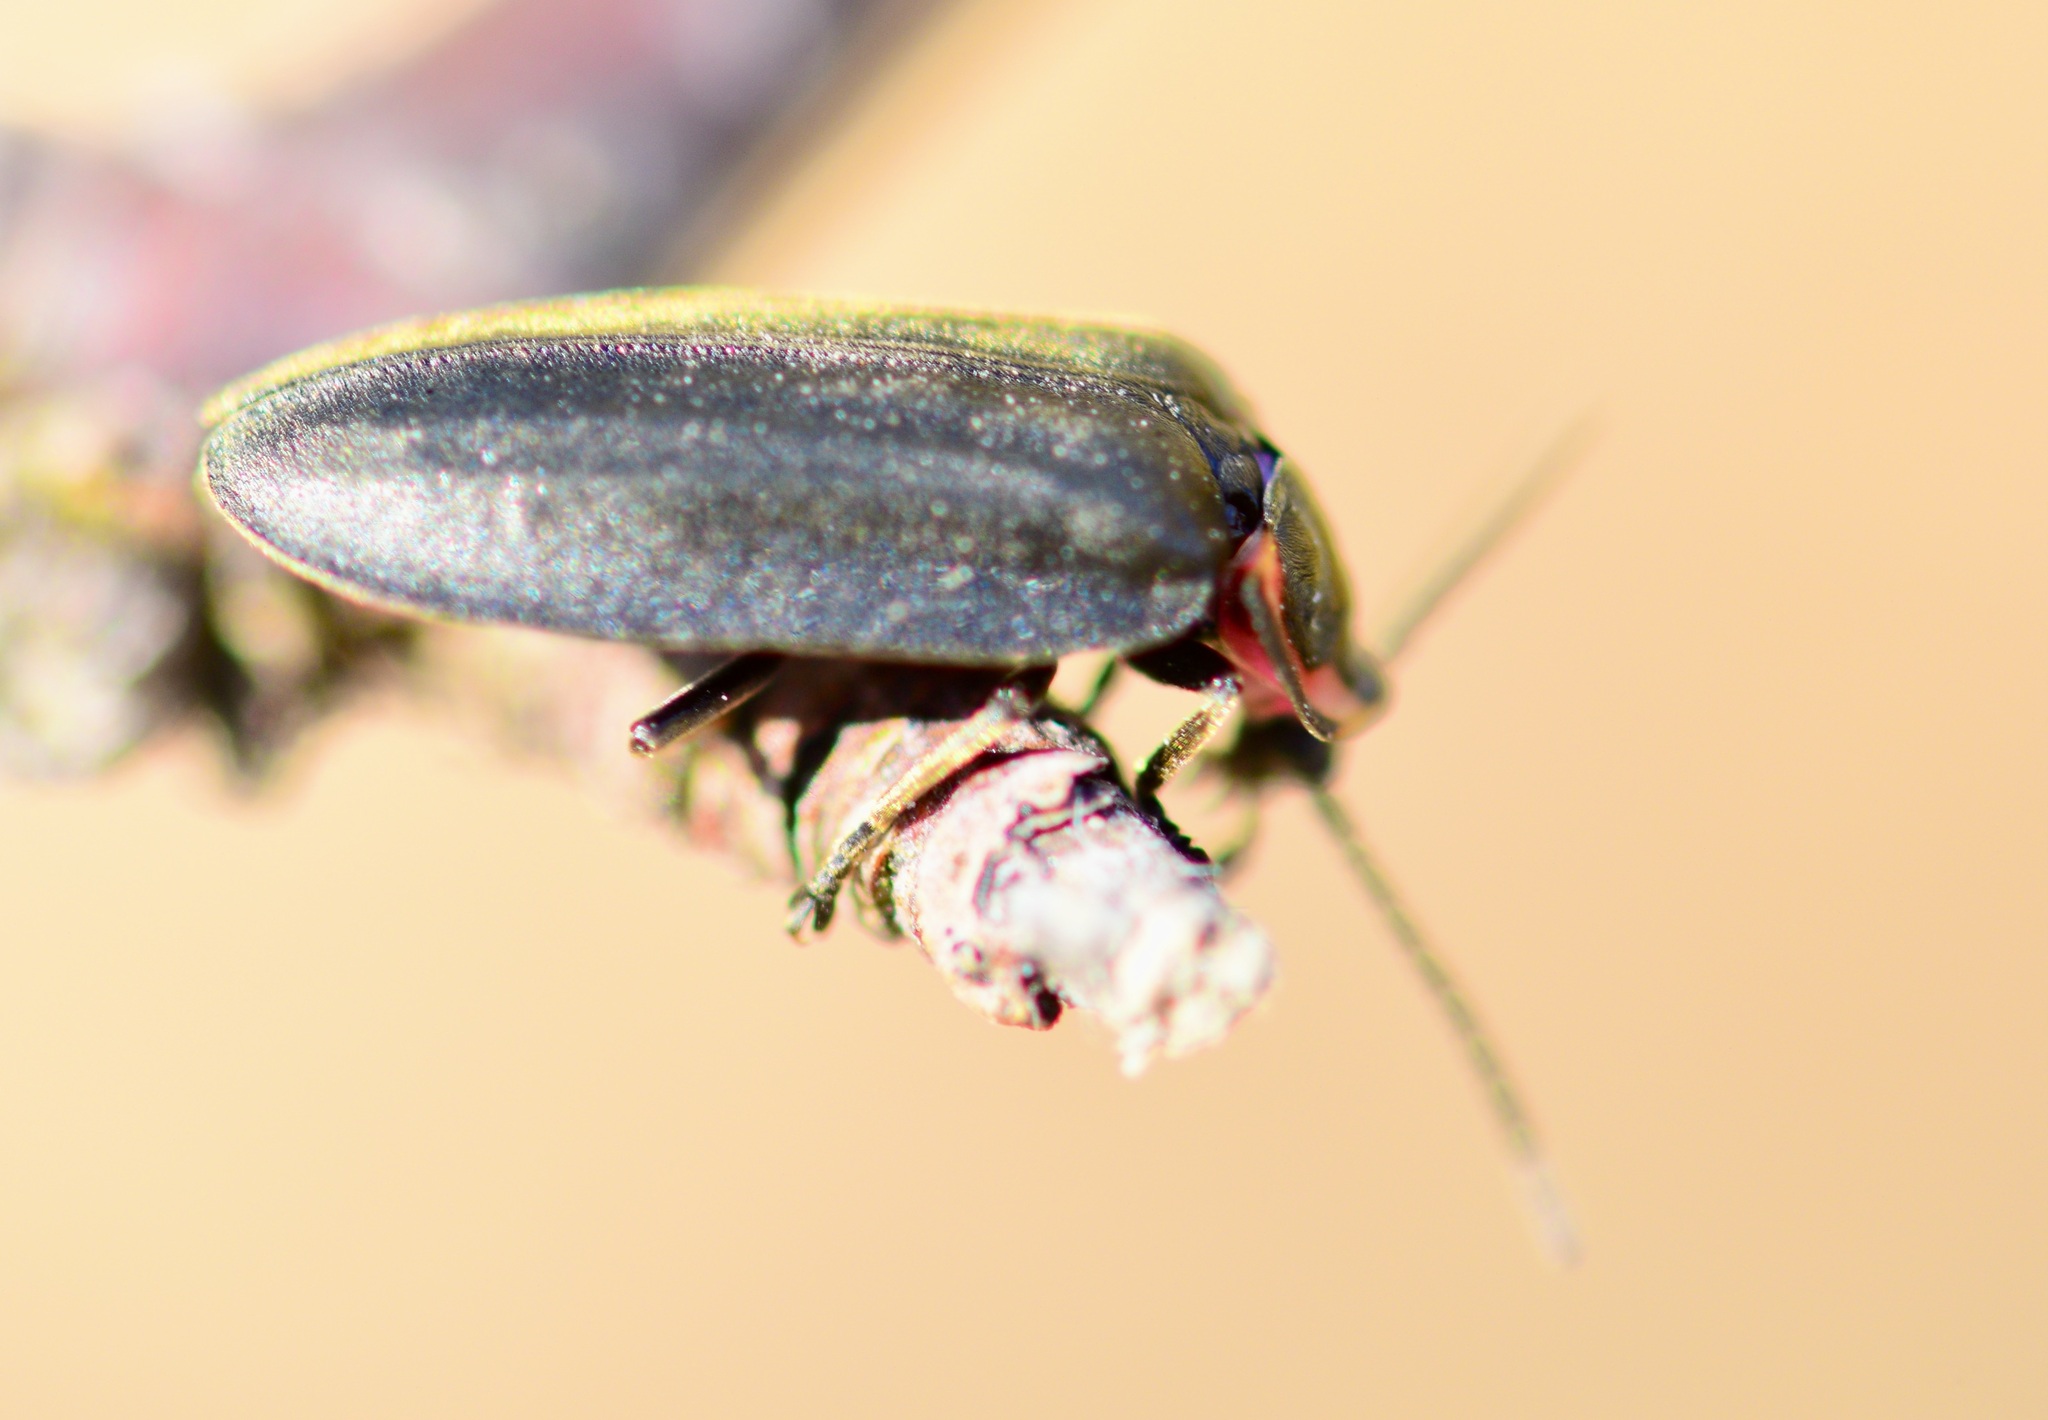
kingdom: Animalia
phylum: Arthropoda
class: Insecta
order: Coleoptera
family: Lampyridae
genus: Photinus
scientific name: Photinus corrusca
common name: Winter firefly
